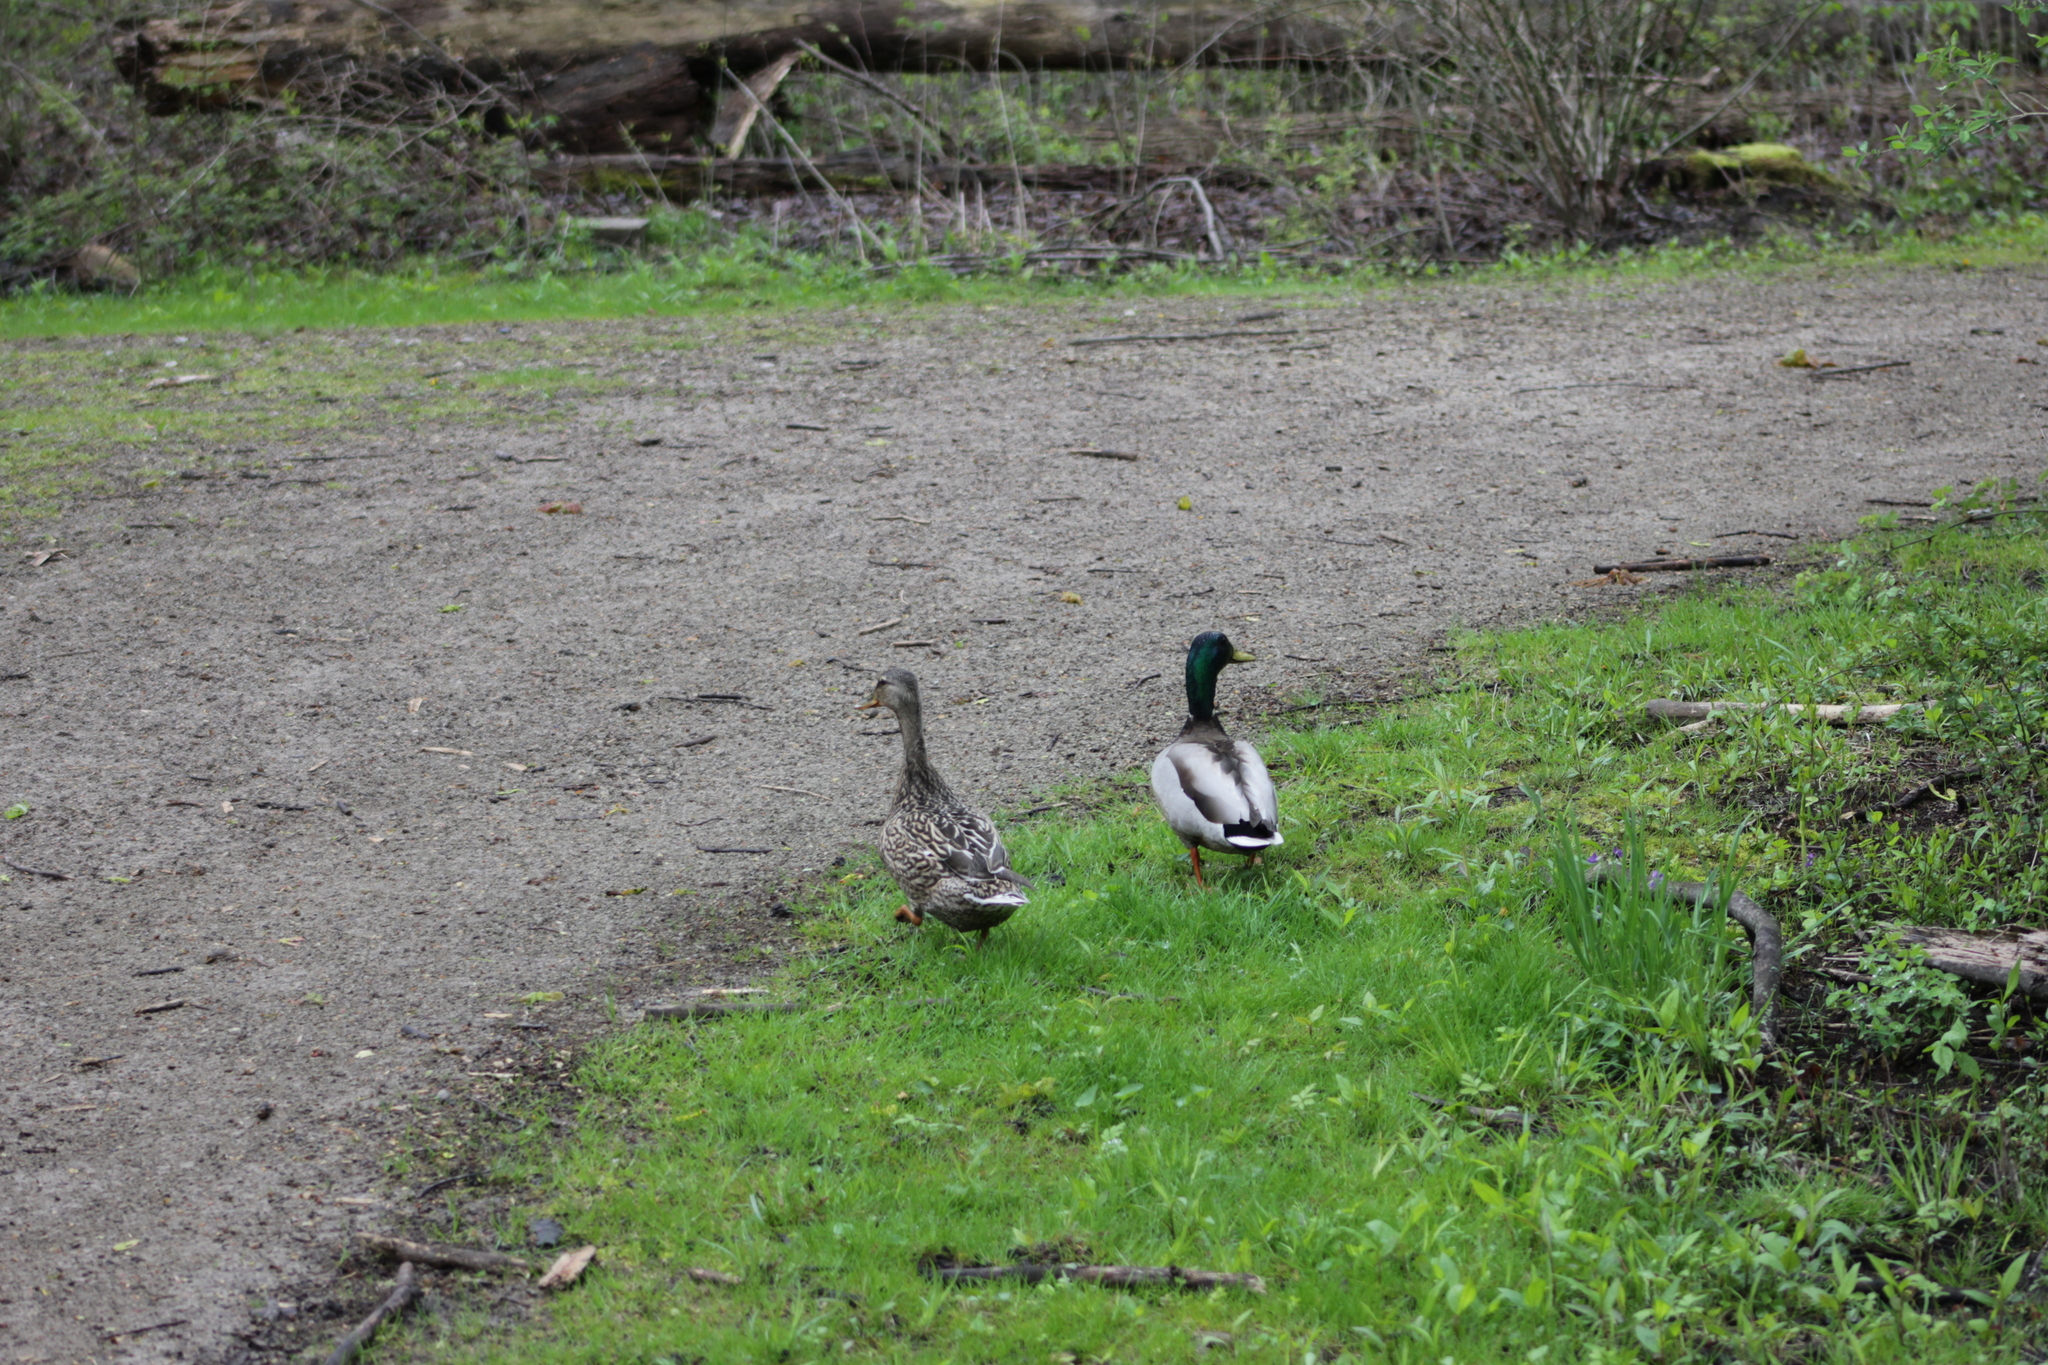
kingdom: Animalia
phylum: Chordata
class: Aves
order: Anseriformes
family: Anatidae
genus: Anas
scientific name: Anas platyrhynchos
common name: Mallard
